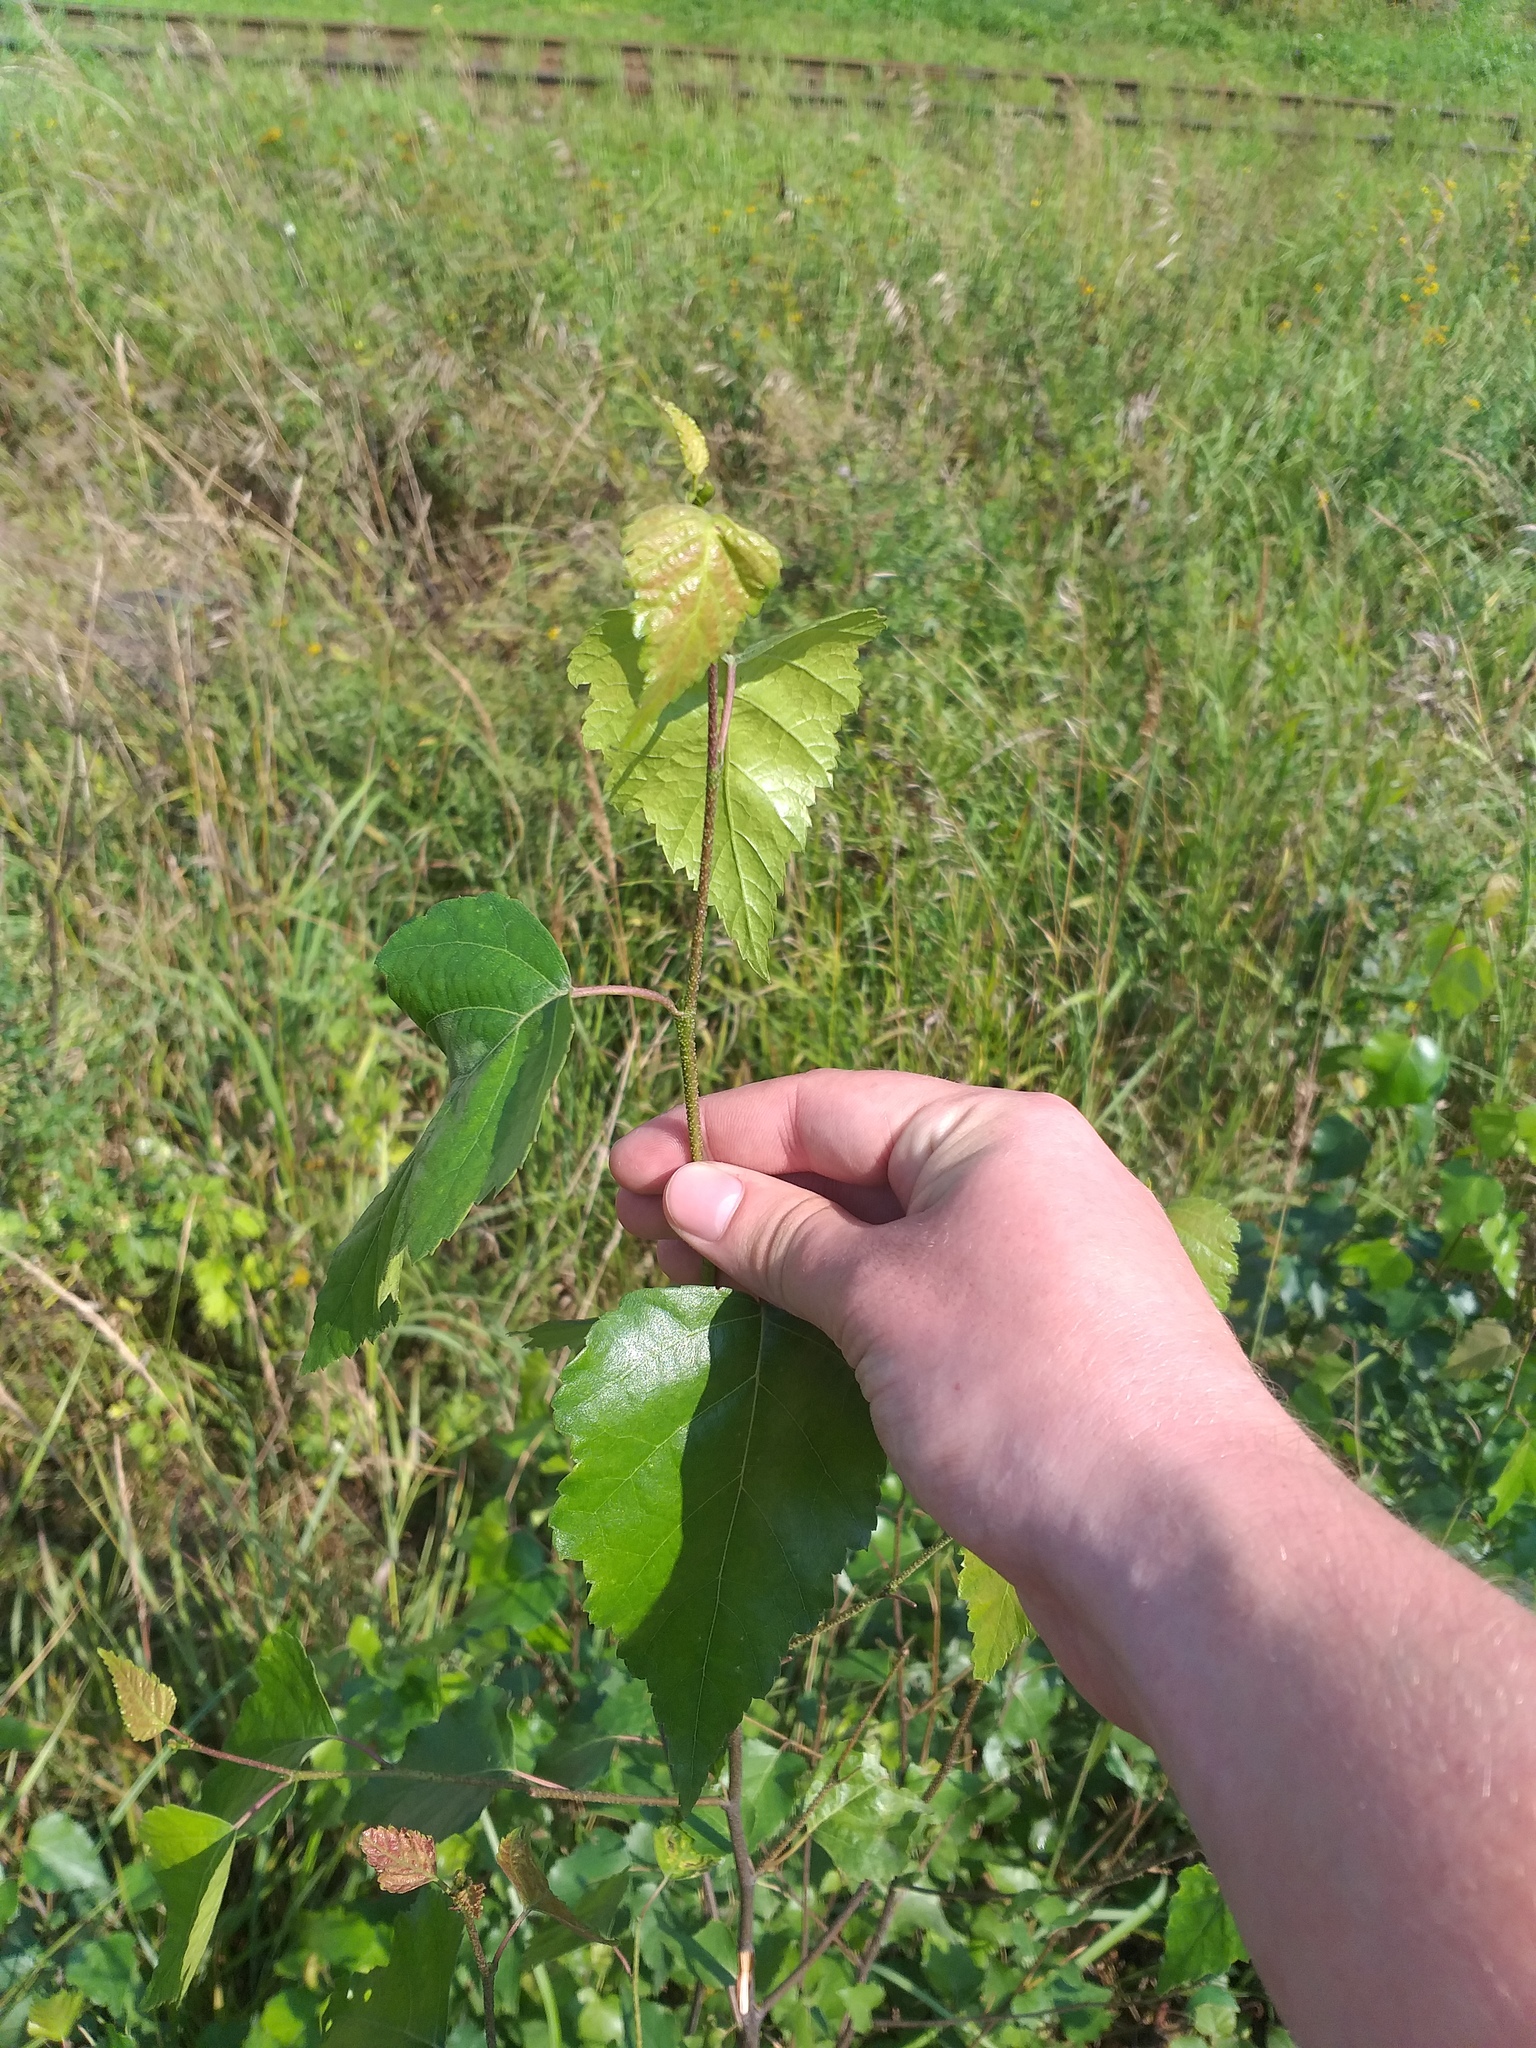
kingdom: Plantae
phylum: Tracheophyta
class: Magnoliopsida
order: Fagales
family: Betulaceae
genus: Betula
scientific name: Betula pendula
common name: Silver birch
